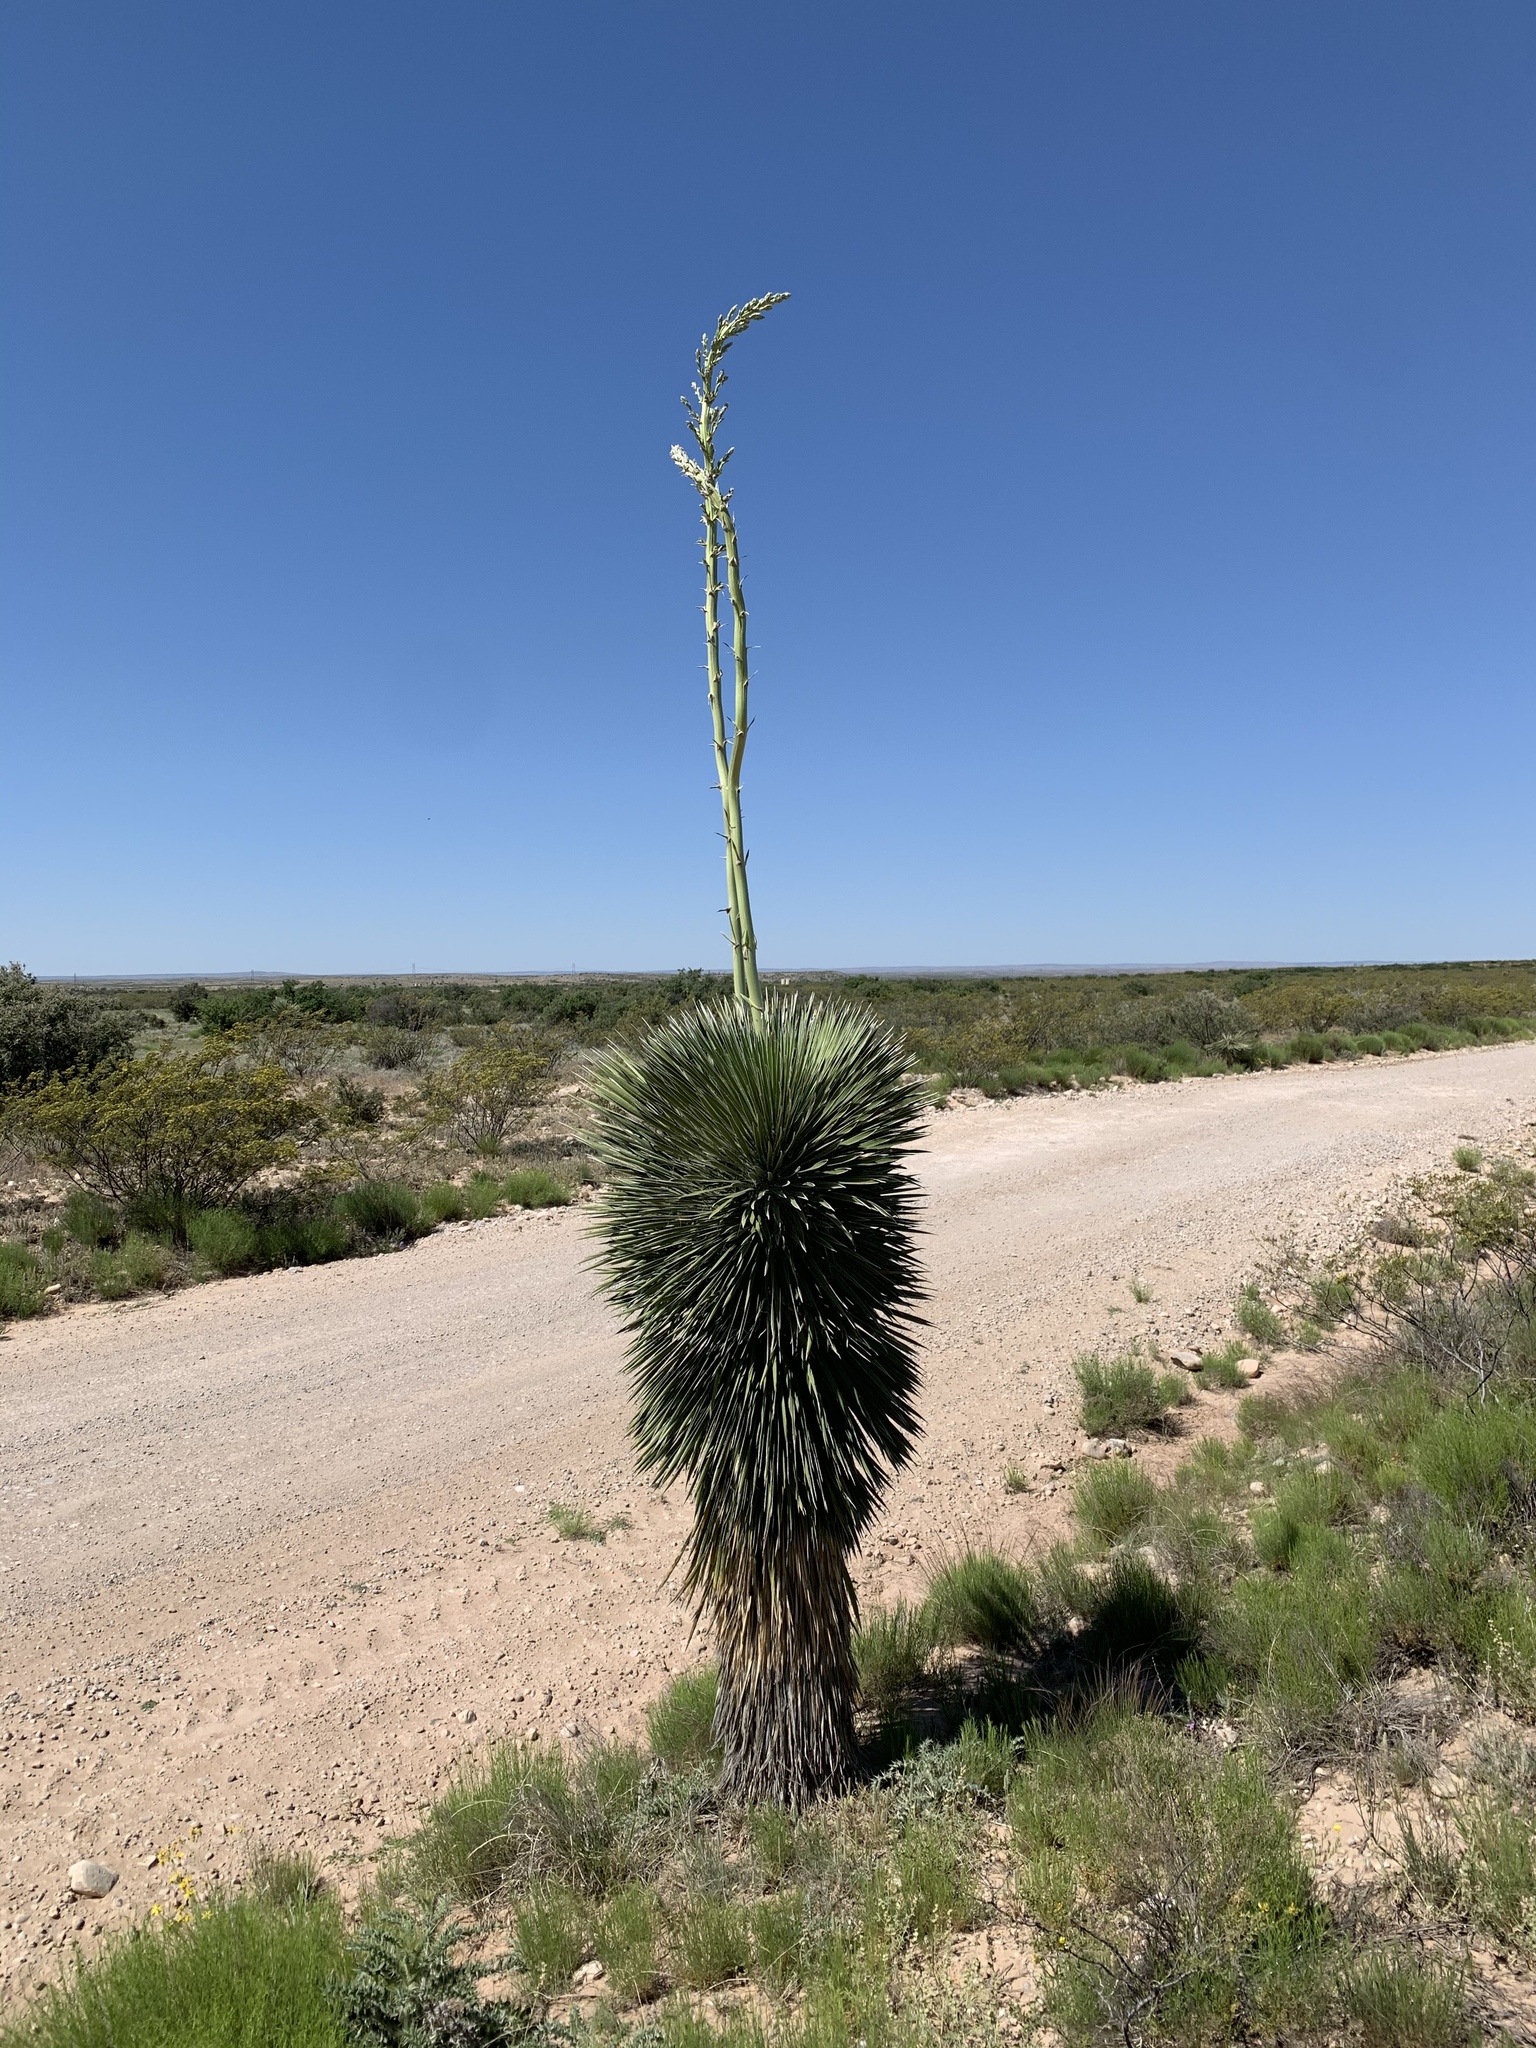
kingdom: Plantae
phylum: Tracheophyta
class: Liliopsida
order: Asparagales
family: Asparagaceae
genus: Yucca
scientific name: Yucca elata
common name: Palmella
